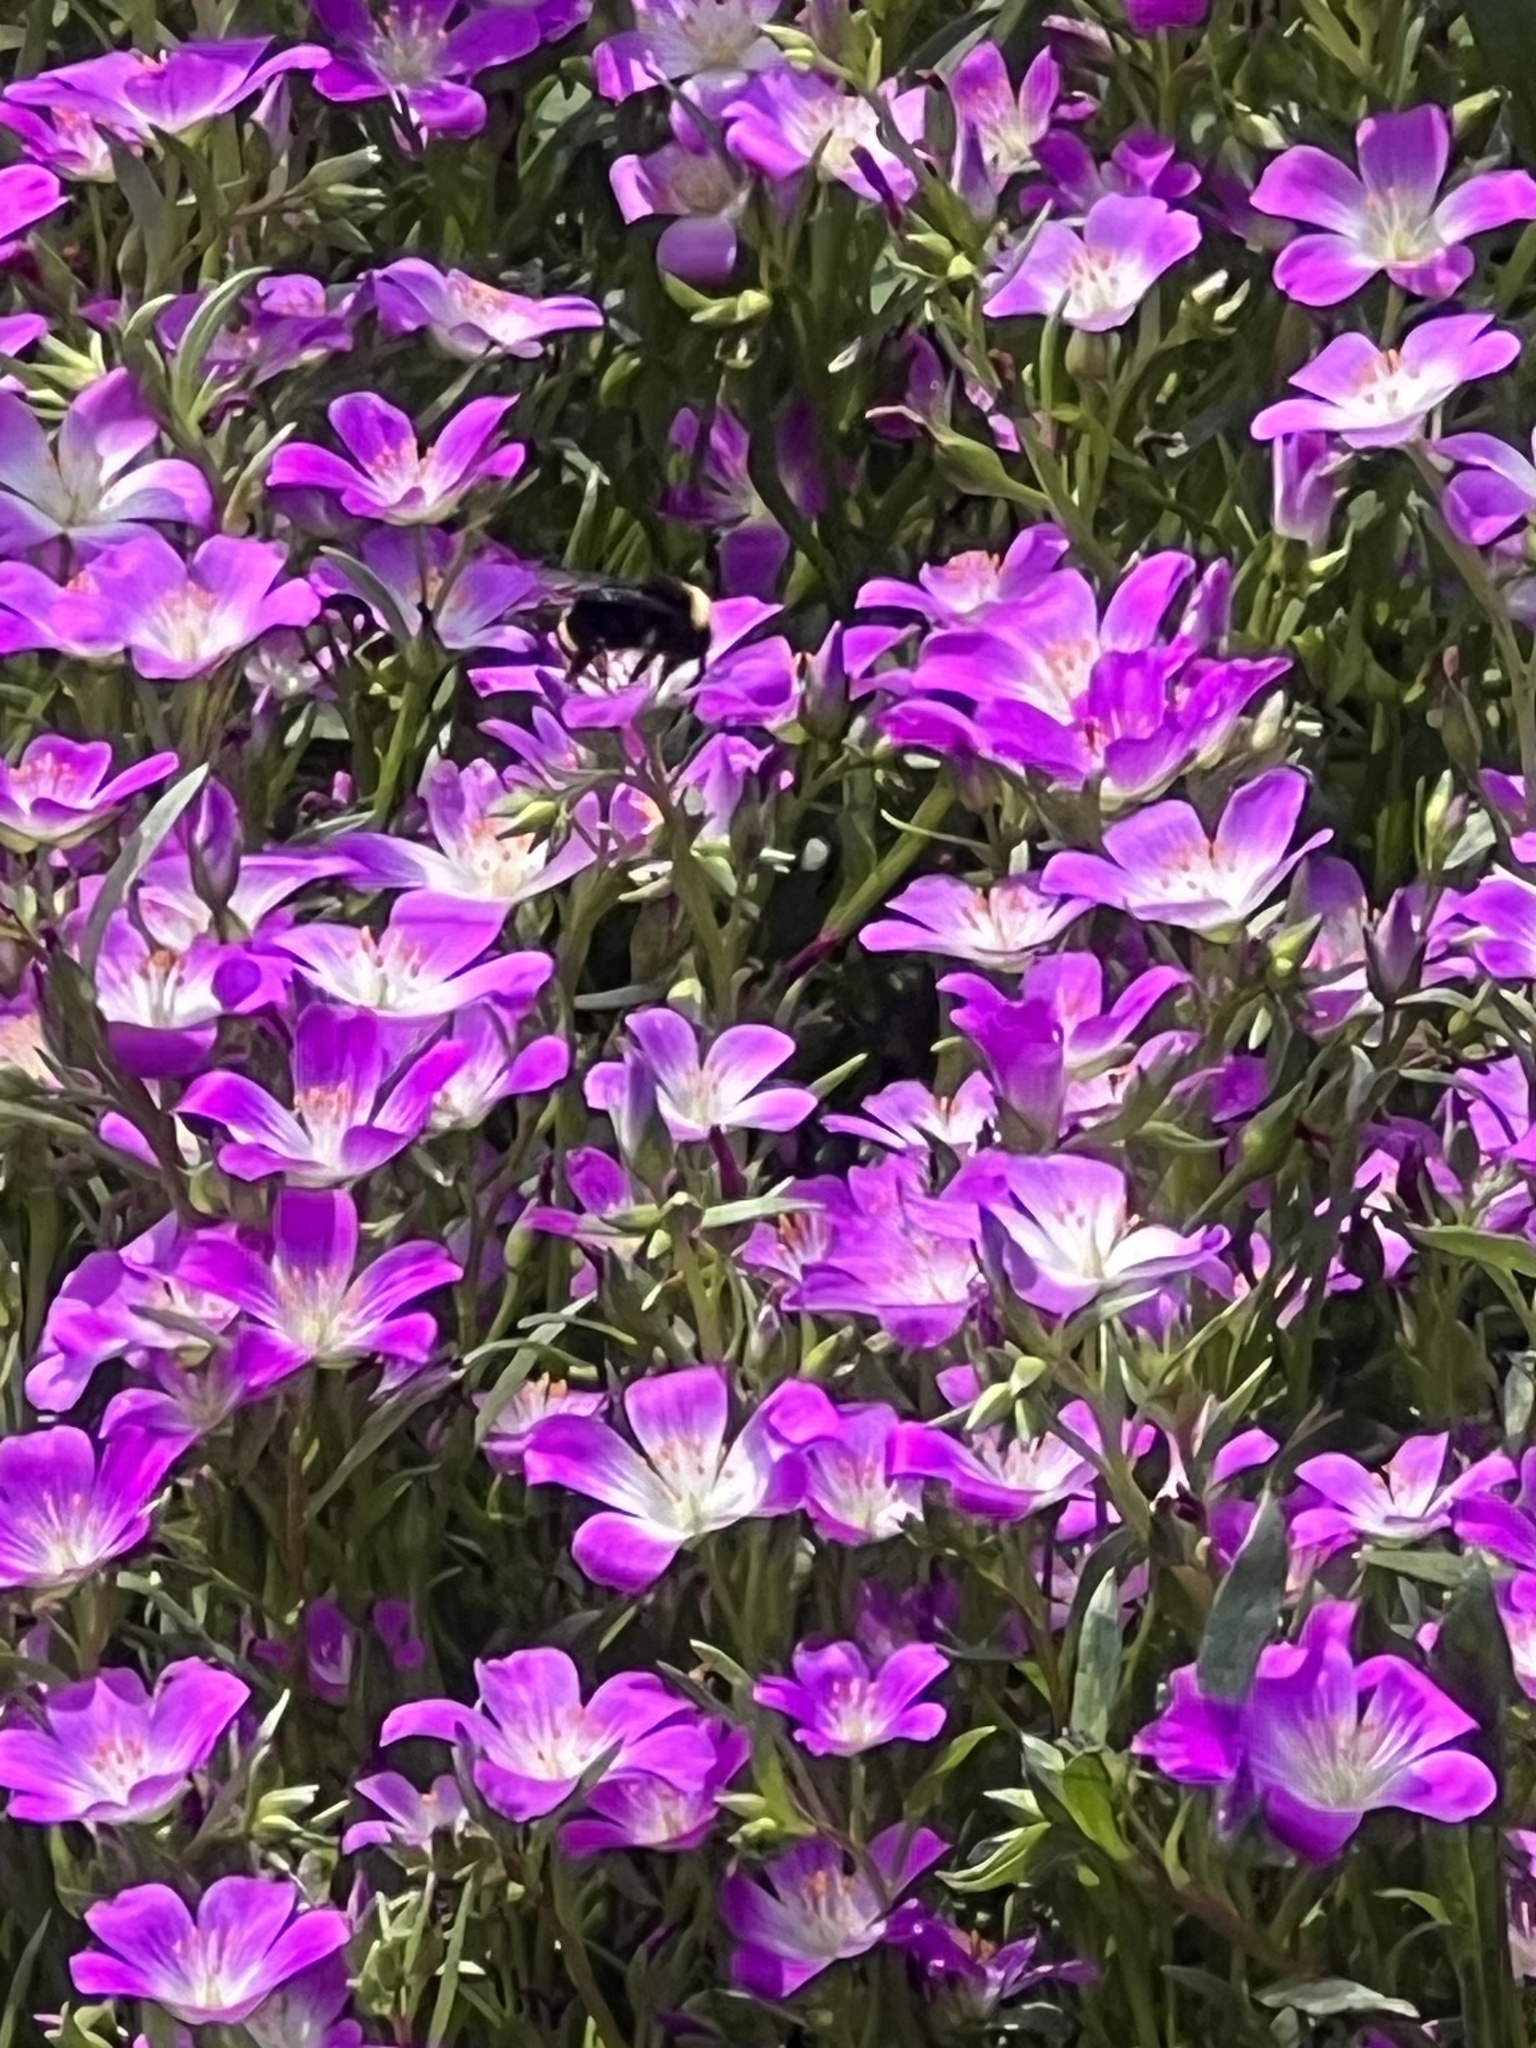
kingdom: Animalia
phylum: Arthropoda
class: Insecta
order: Hymenoptera
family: Apidae
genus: Bombus
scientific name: Bombus vosnesenskii
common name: Vosnesensky bumble bee
